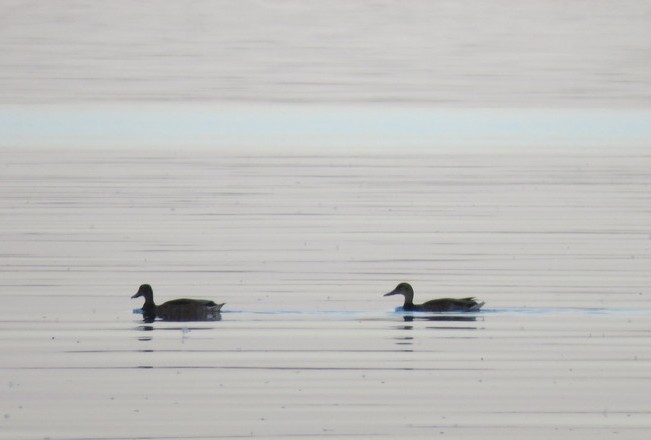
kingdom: Animalia
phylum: Chordata
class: Aves
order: Anseriformes
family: Anatidae
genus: Anas
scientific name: Anas platyrhynchos
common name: Mallard
